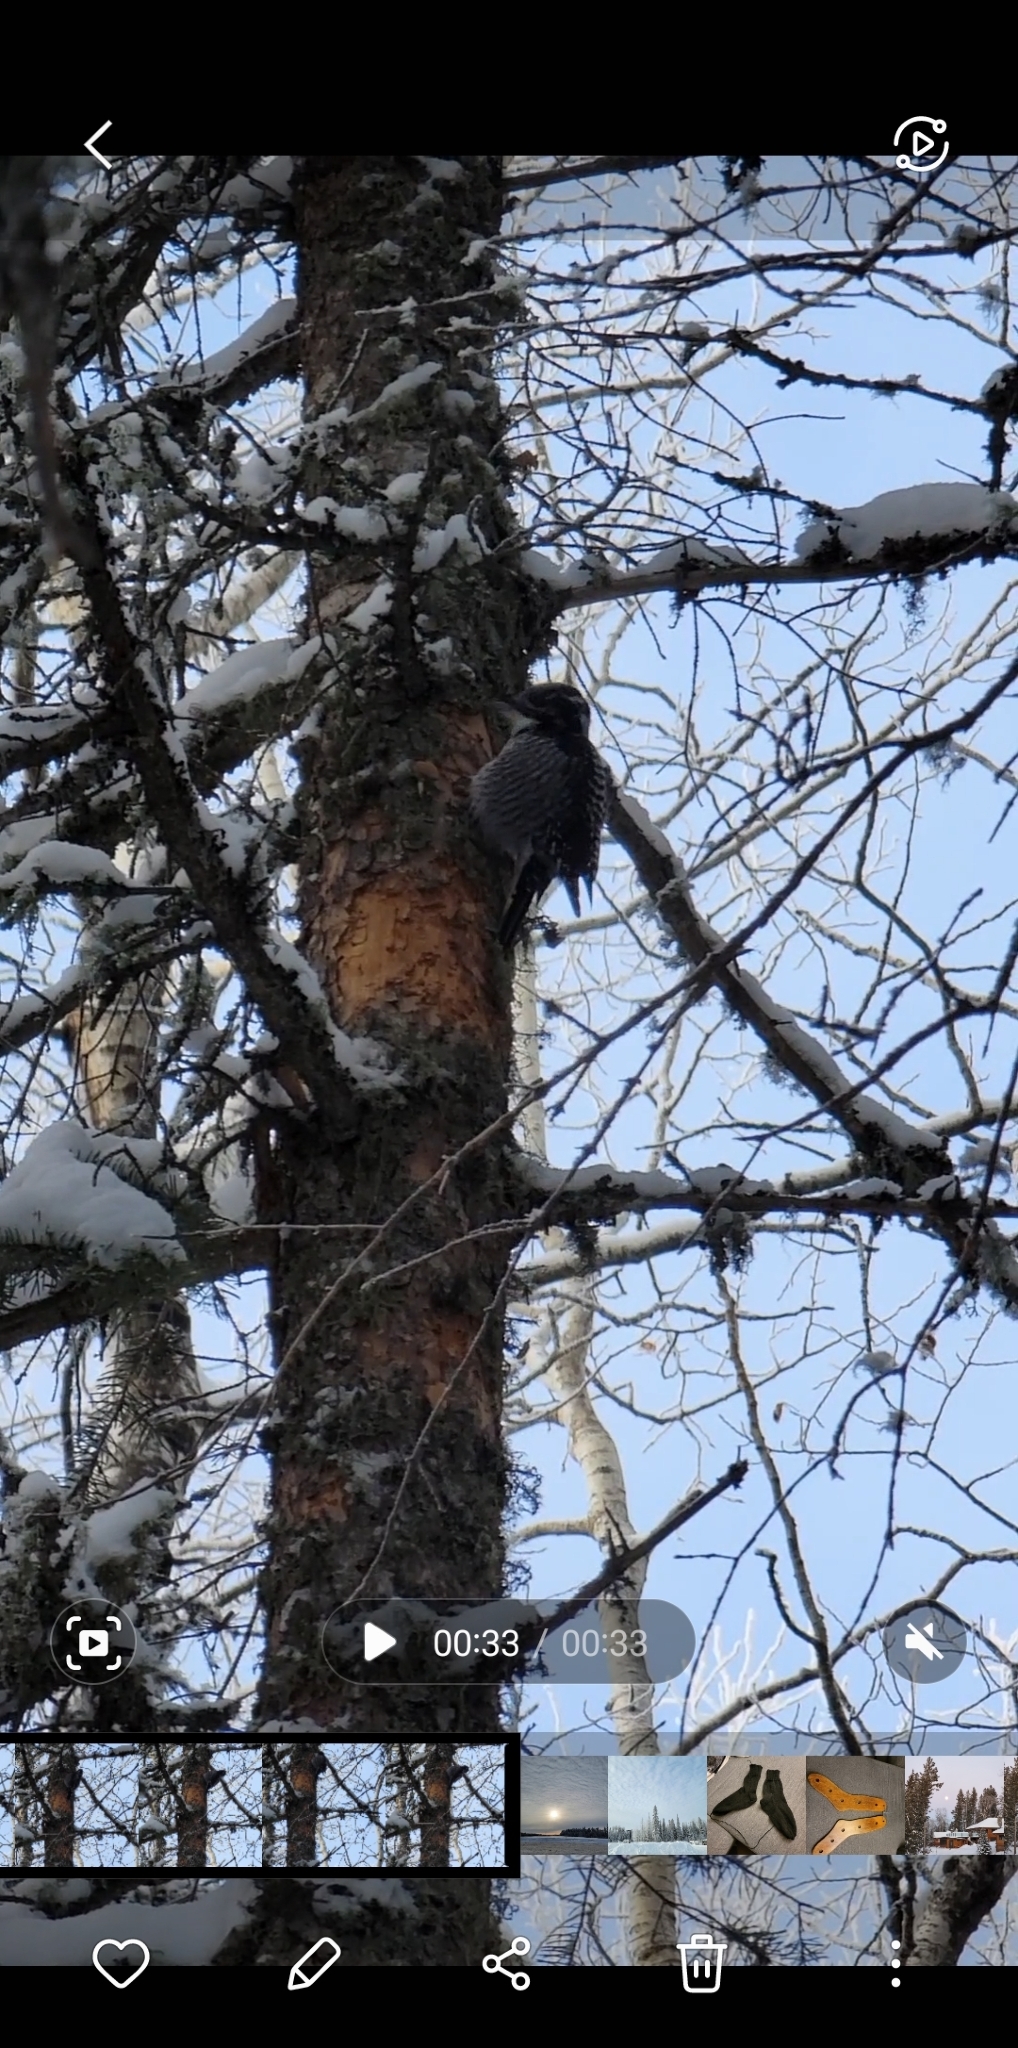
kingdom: Animalia
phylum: Chordata
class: Aves
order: Piciformes
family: Picidae
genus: Picoides
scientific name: Picoides dorsalis
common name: American three-toed woodpecker
